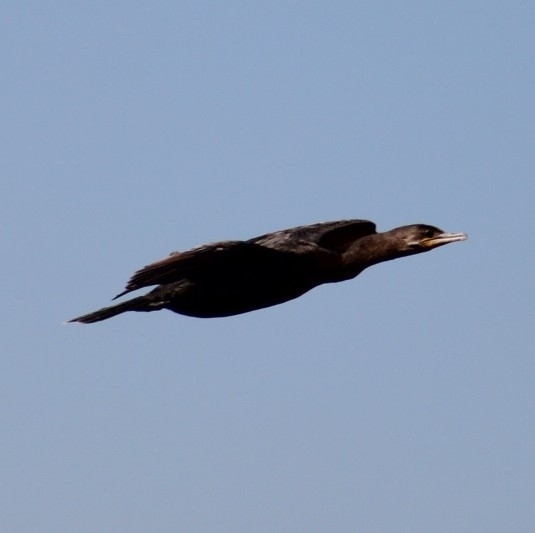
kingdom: Animalia
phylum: Chordata
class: Aves
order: Suliformes
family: Phalacrocoracidae
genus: Phalacrocorax
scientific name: Phalacrocorax brasilianus
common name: Neotropic cormorant
